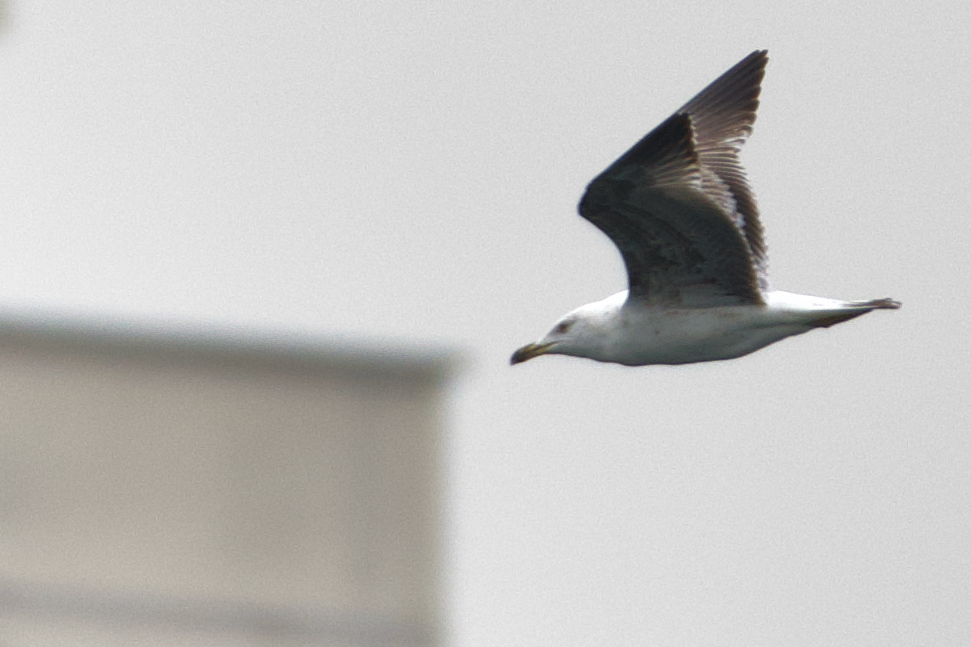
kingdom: Animalia
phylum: Chordata
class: Aves
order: Charadriiformes
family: Laridae
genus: Larus
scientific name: Larus michahellis
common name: Yellow-legged gull
